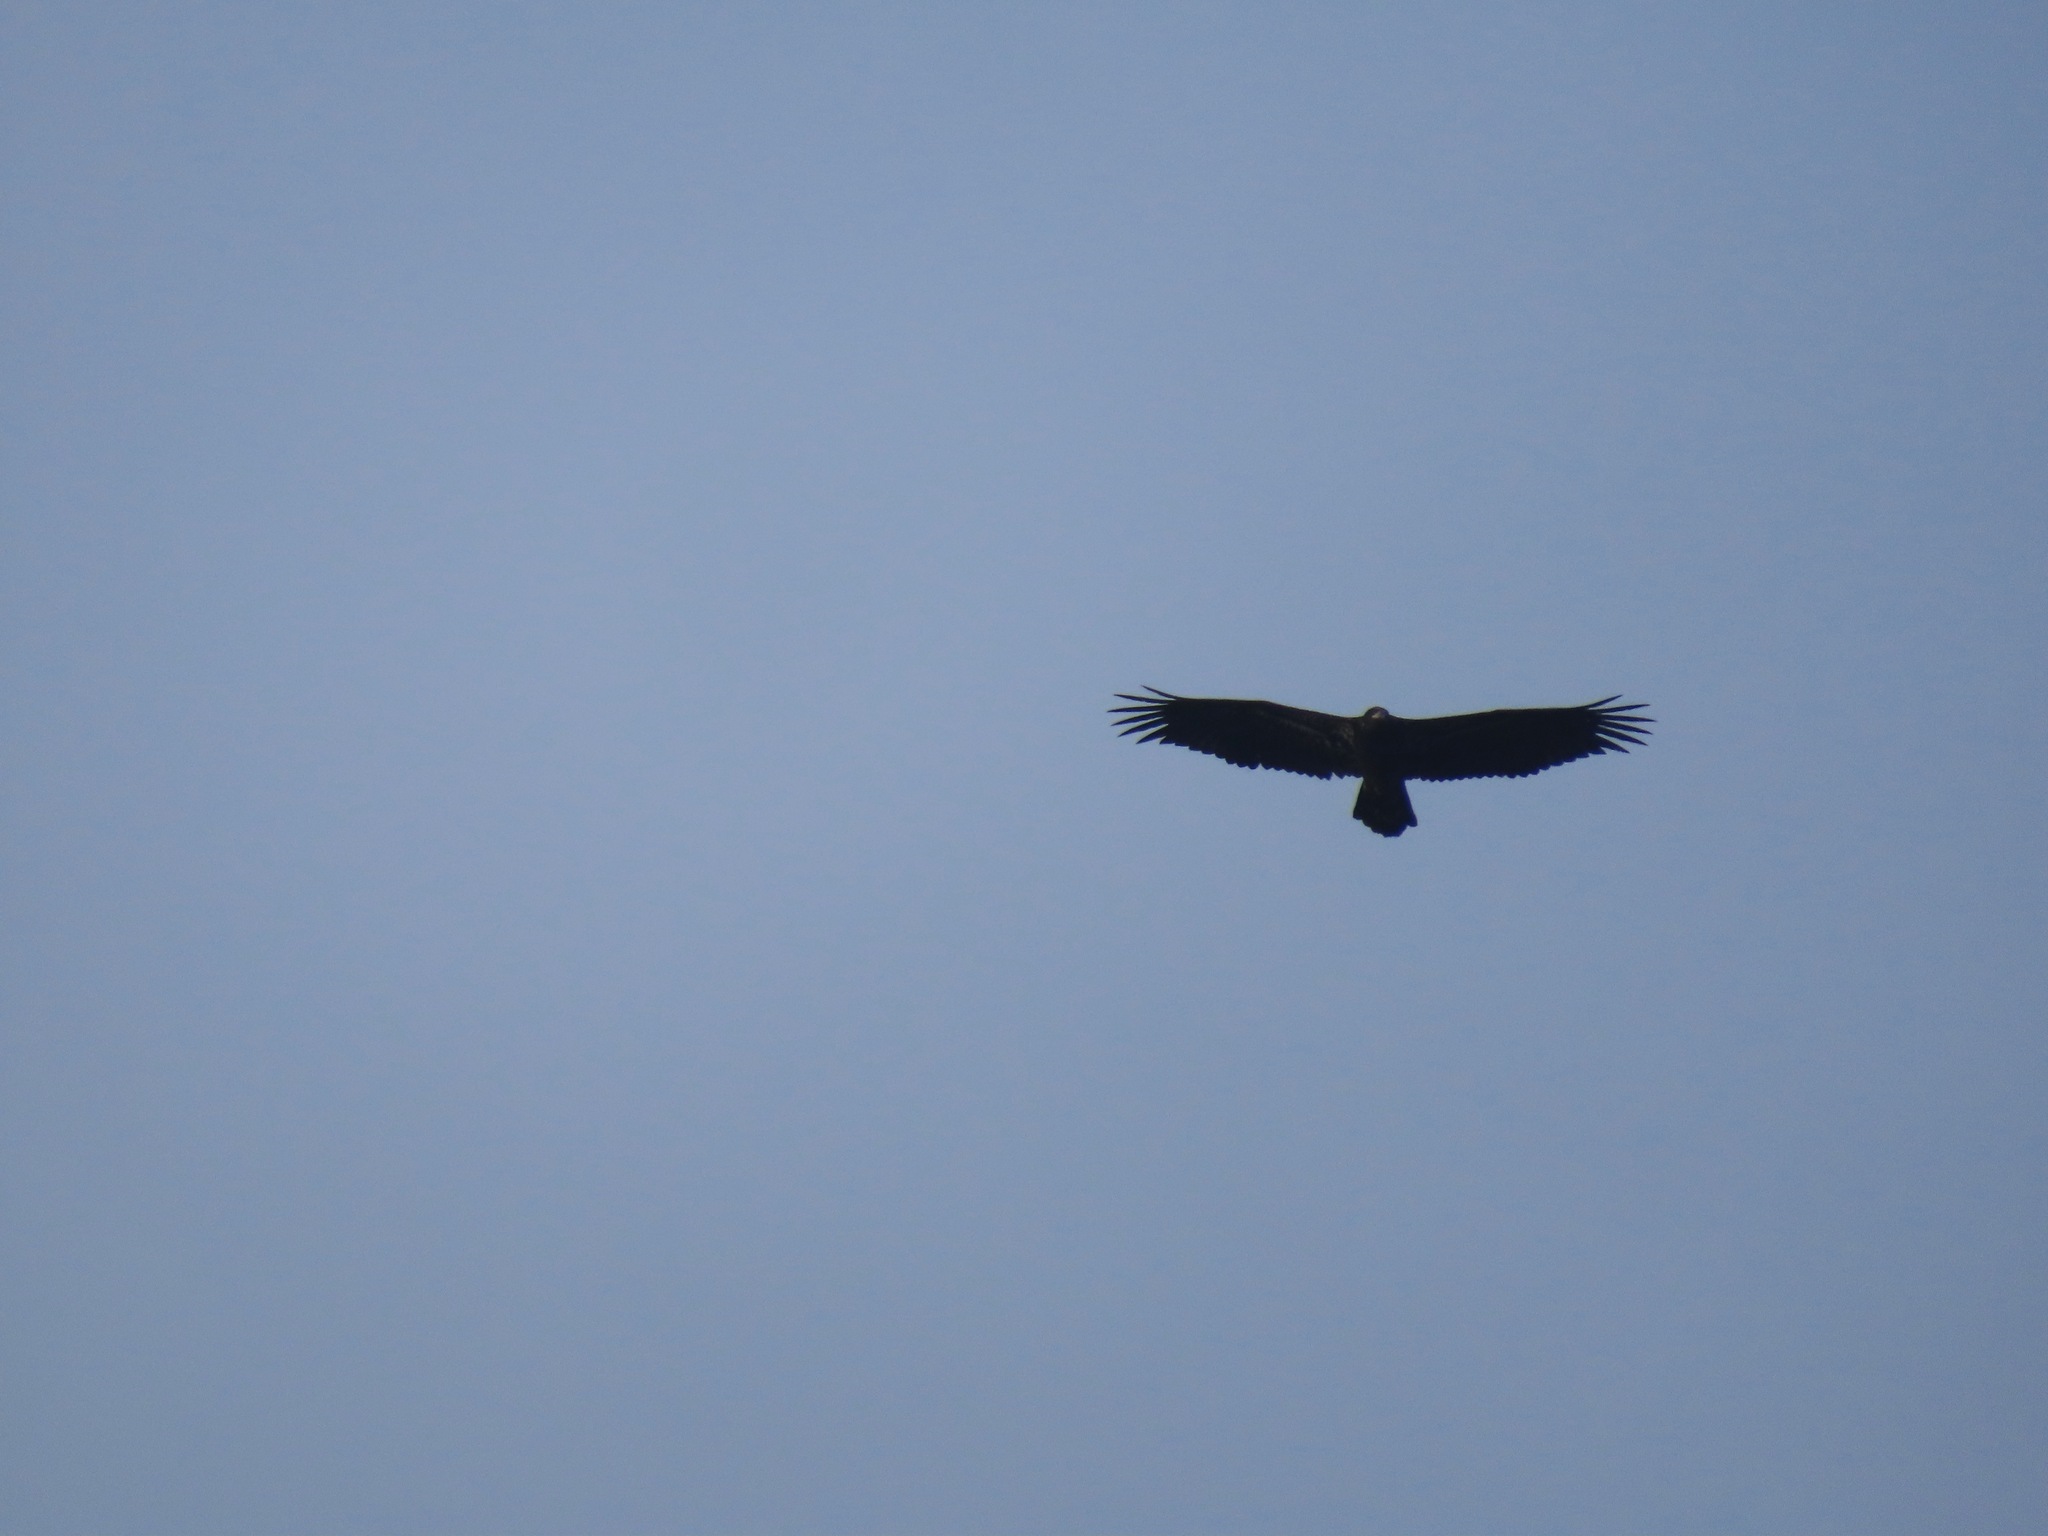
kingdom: Animalia
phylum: Chordata
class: Aves
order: Accipitriformes
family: Accipitridae
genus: Haliaeetus
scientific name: Haliaeetus leucocephalus
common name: Bald eagle
